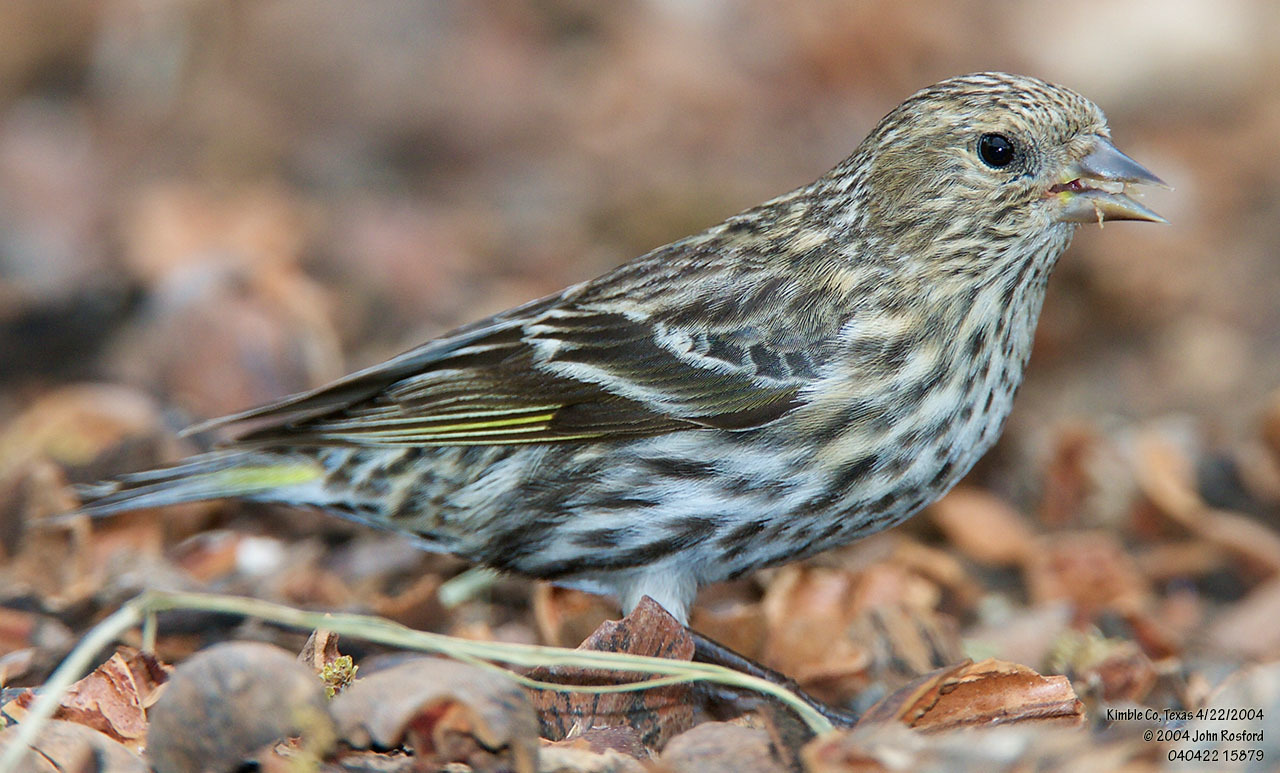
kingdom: Animalia
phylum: Chordata
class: Aves
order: Passeriformes
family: Fringillidae
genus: Spinus
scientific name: Spinus pinus
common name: Pine siskin
